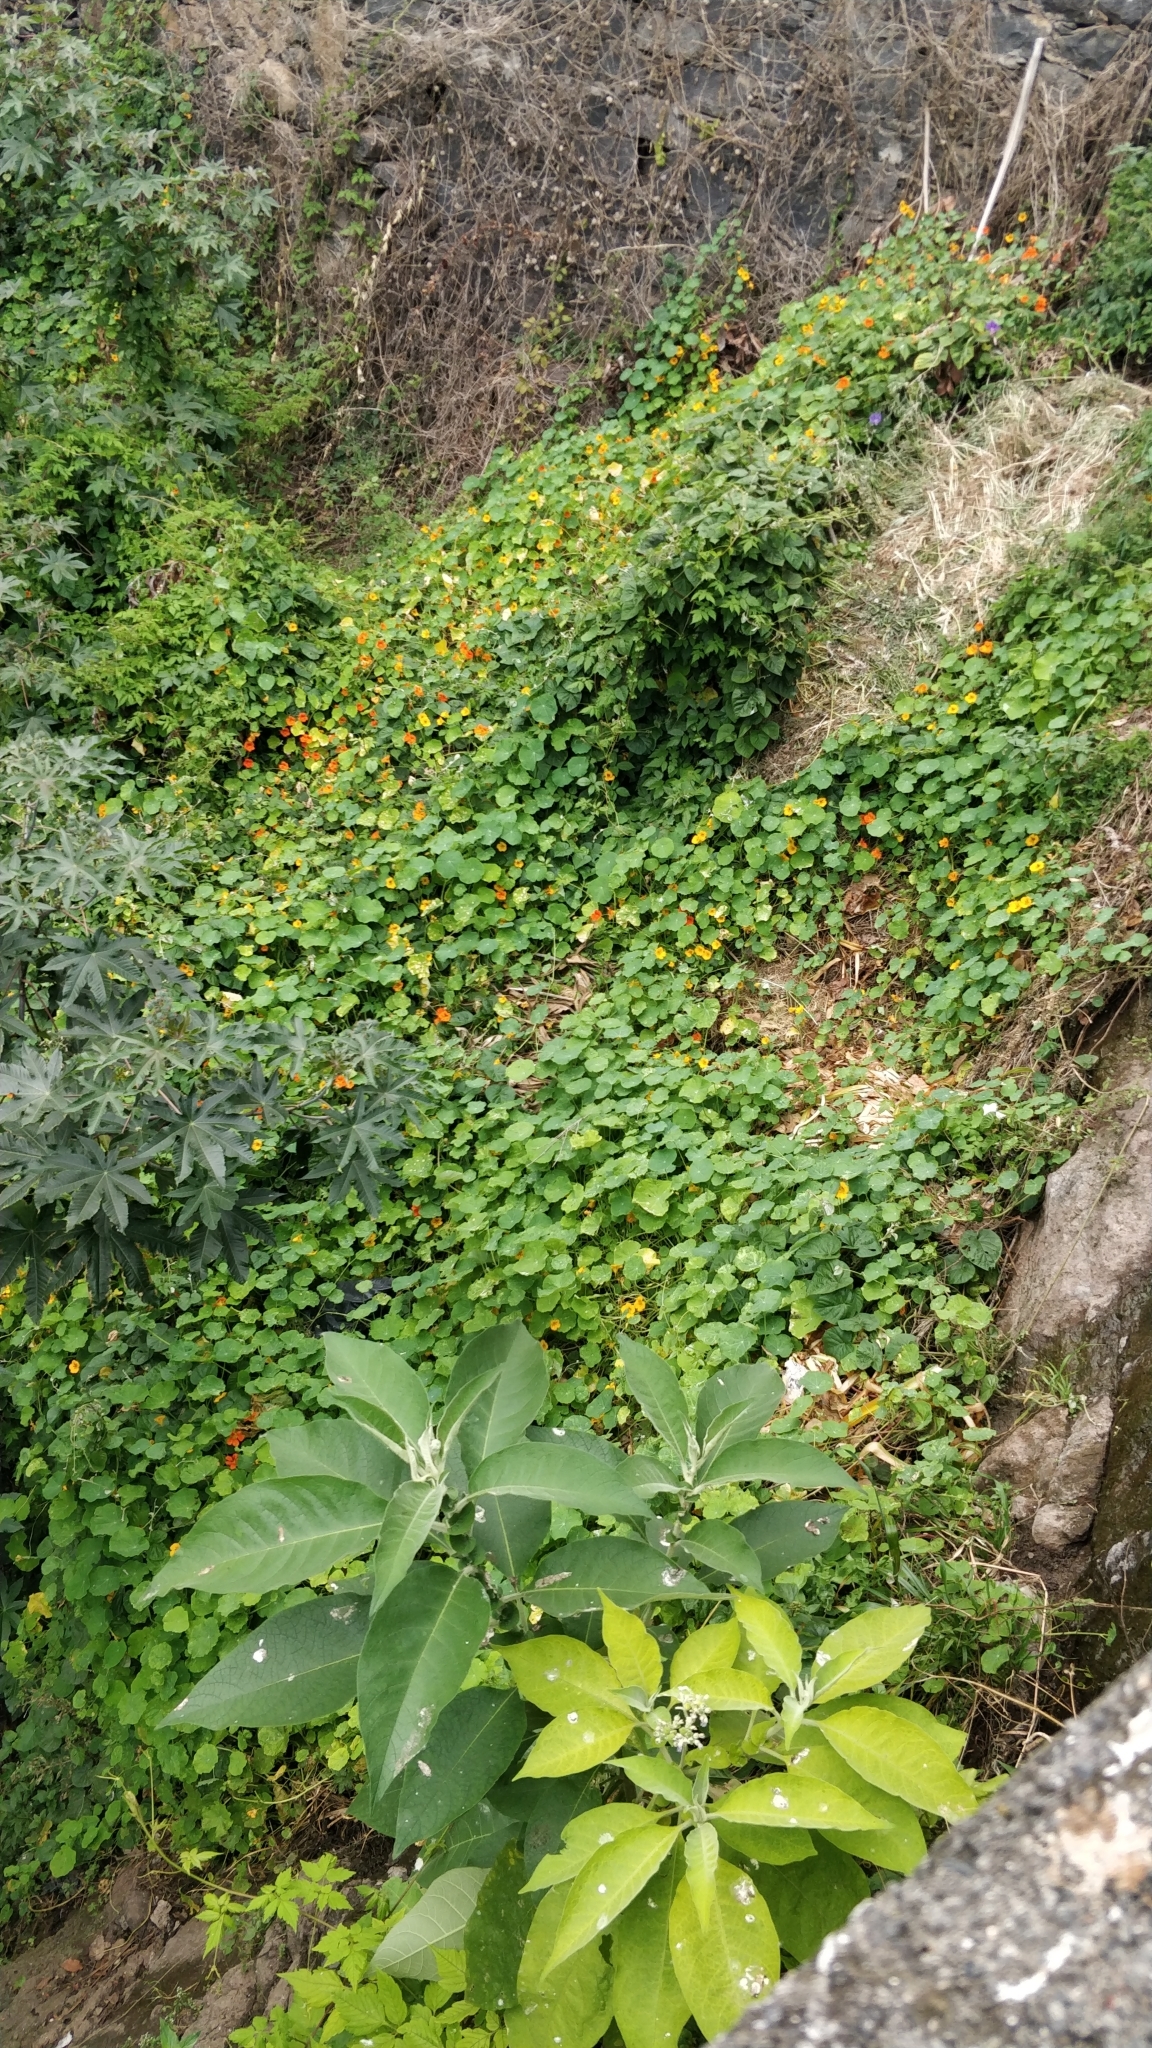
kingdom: Plantae
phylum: Tracheophyta
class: Magnoliopsida
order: Brassicales
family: Tropaeolaceae
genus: Tropaeolum
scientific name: Tropaeolum majus
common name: Nasturtium
